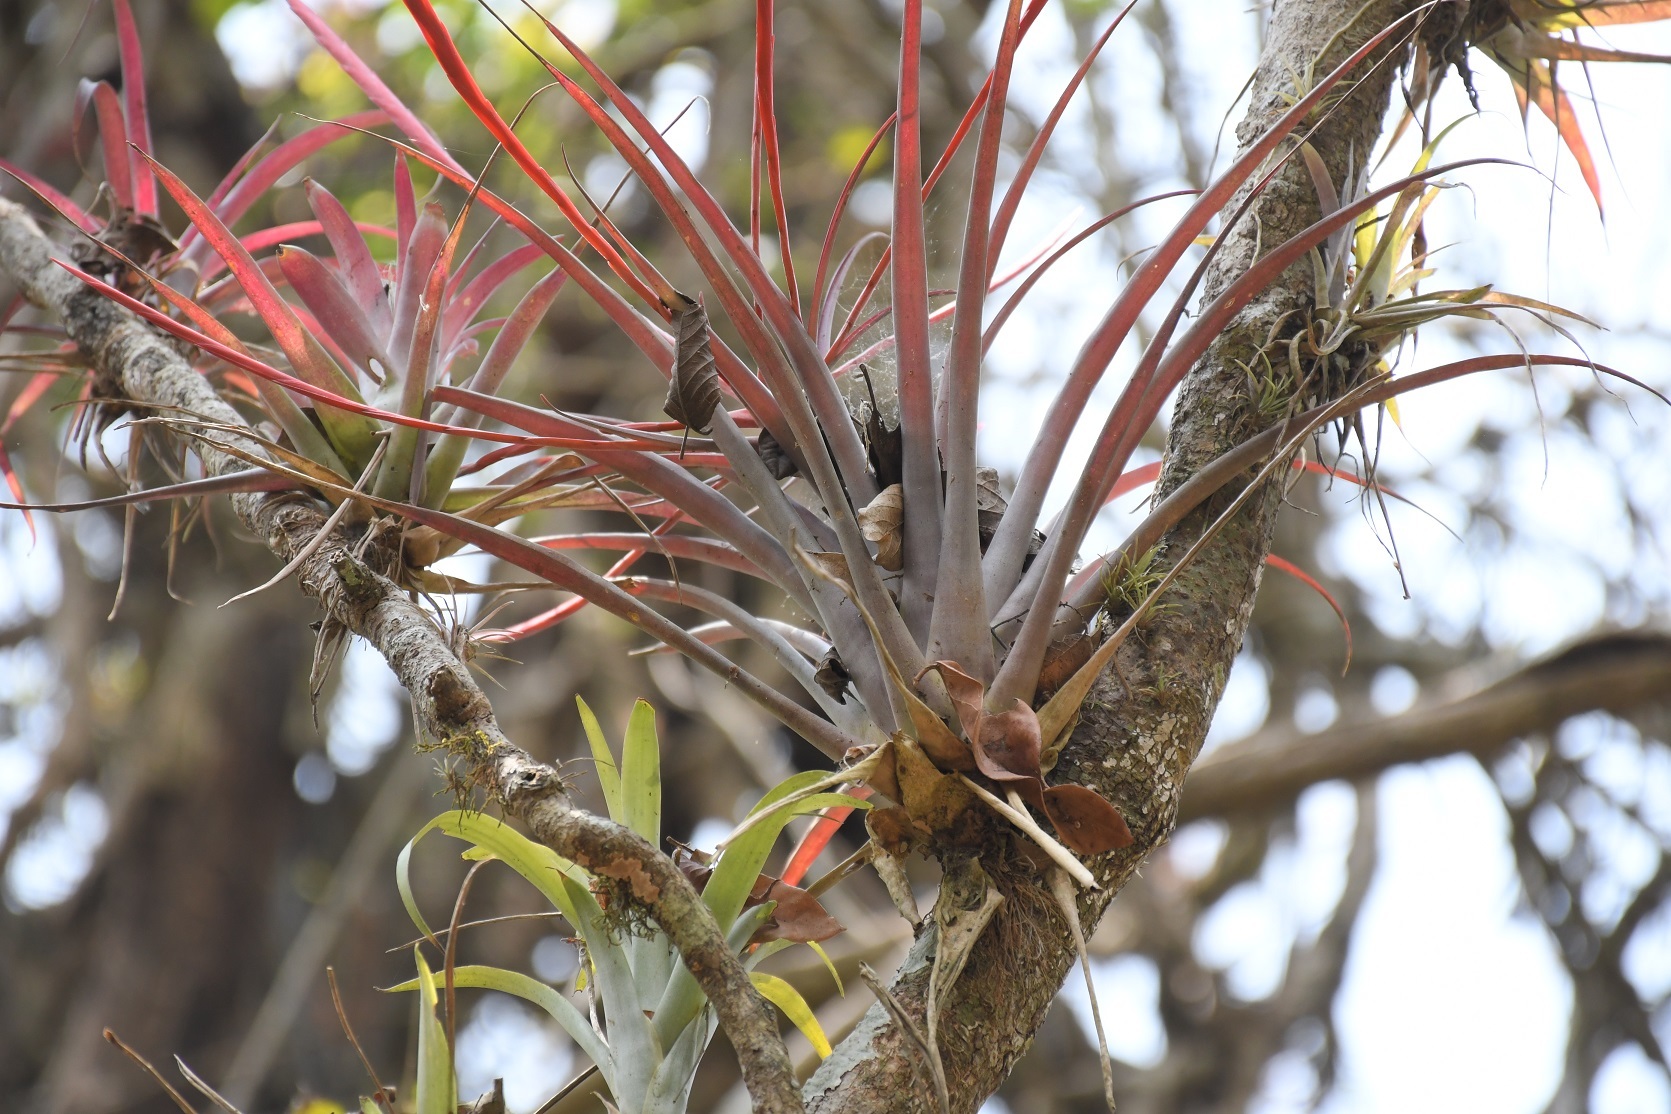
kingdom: Plantae
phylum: Tracheophyta
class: Liliopsida
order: Poales
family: Bromeliaceae
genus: Tillandsia
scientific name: Tillandsia flabellata
